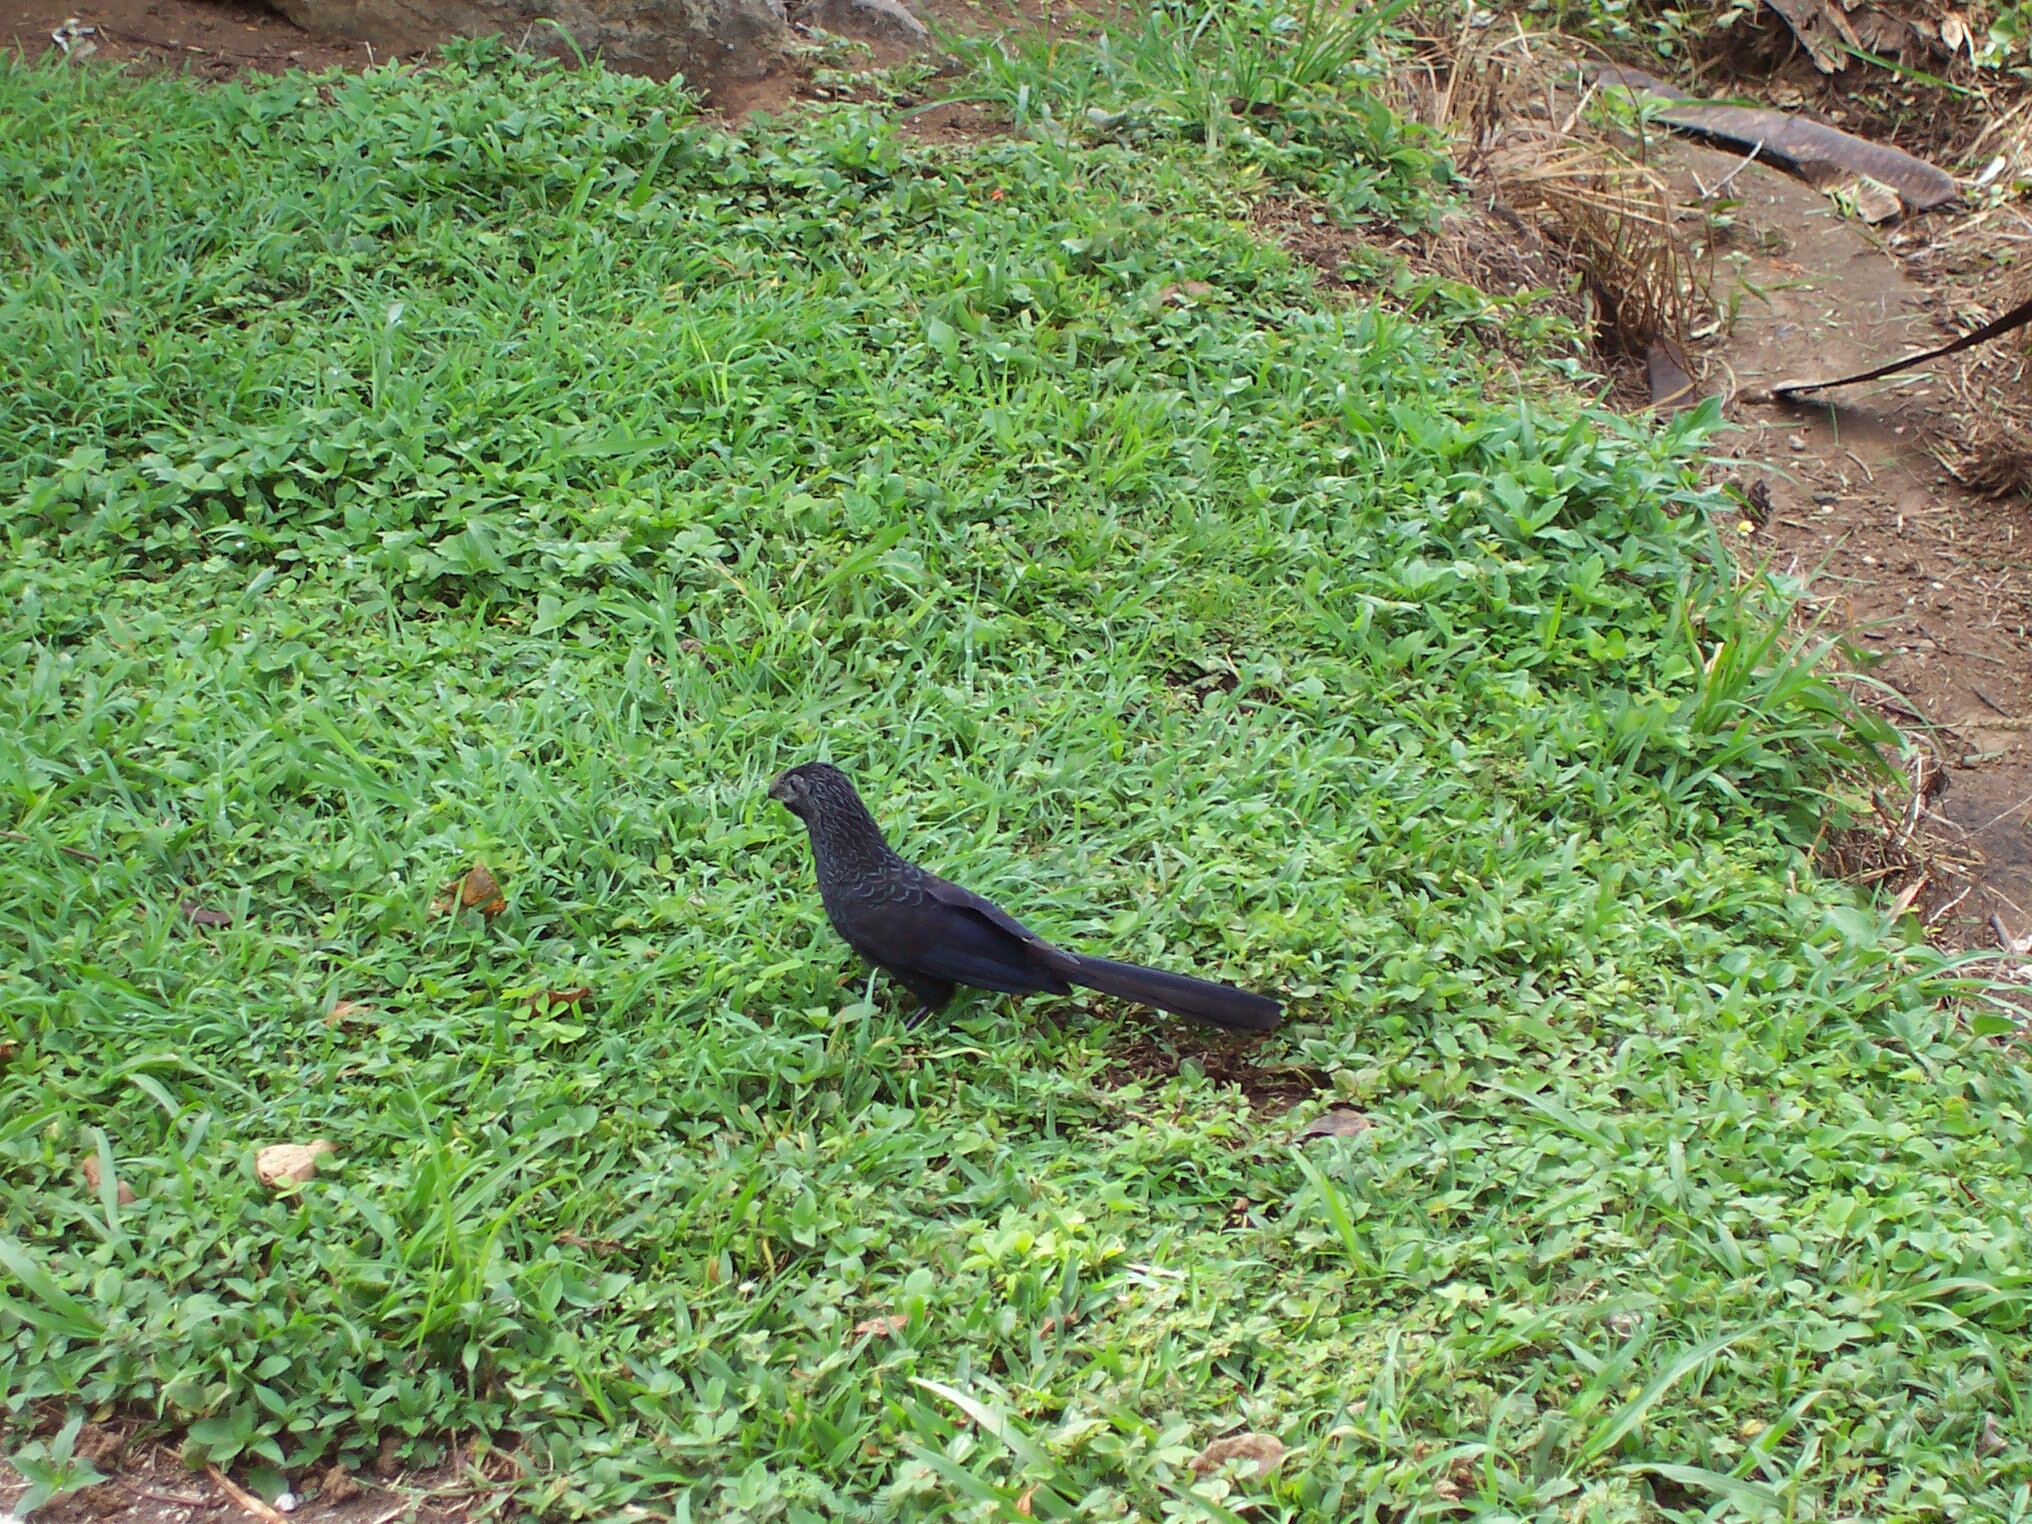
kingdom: Animalia
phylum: Chordata
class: Aves
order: Cuculiformes
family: Cuculidae
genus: Crotophaga
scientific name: Crotophaga sulcirostris
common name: Groove-billed ani
